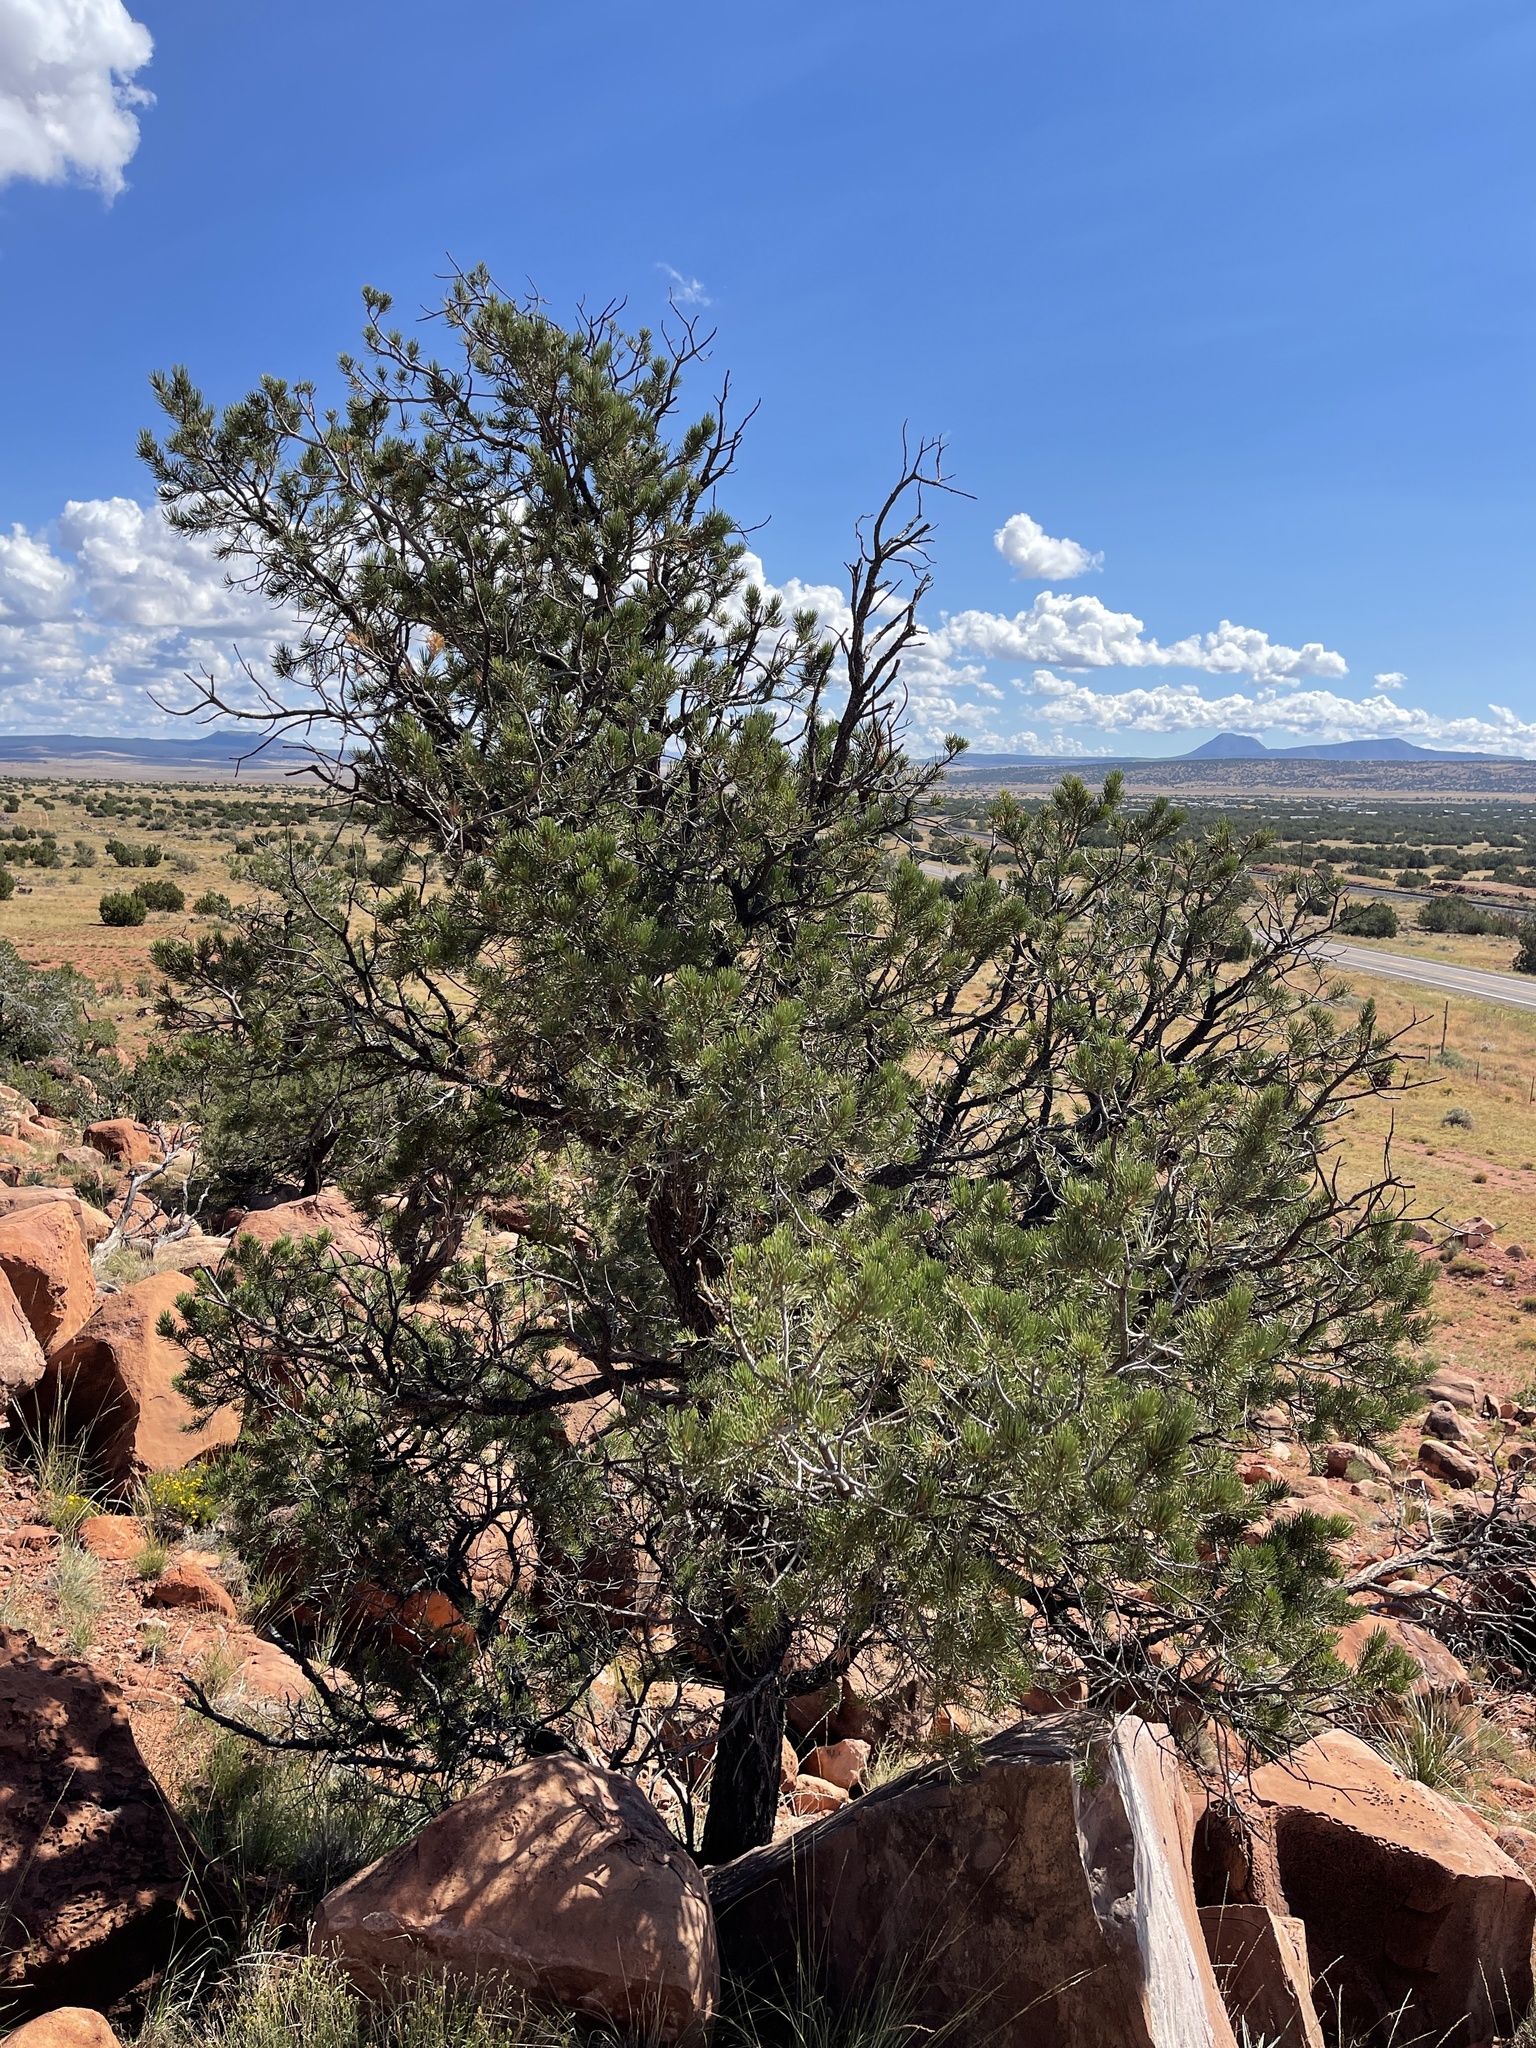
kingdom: Plantae
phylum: Tracheophyta
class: Pinopsida
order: Pinales
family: Pinaceae
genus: Pinus
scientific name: Pinus edulis
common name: Colorado pinyon
